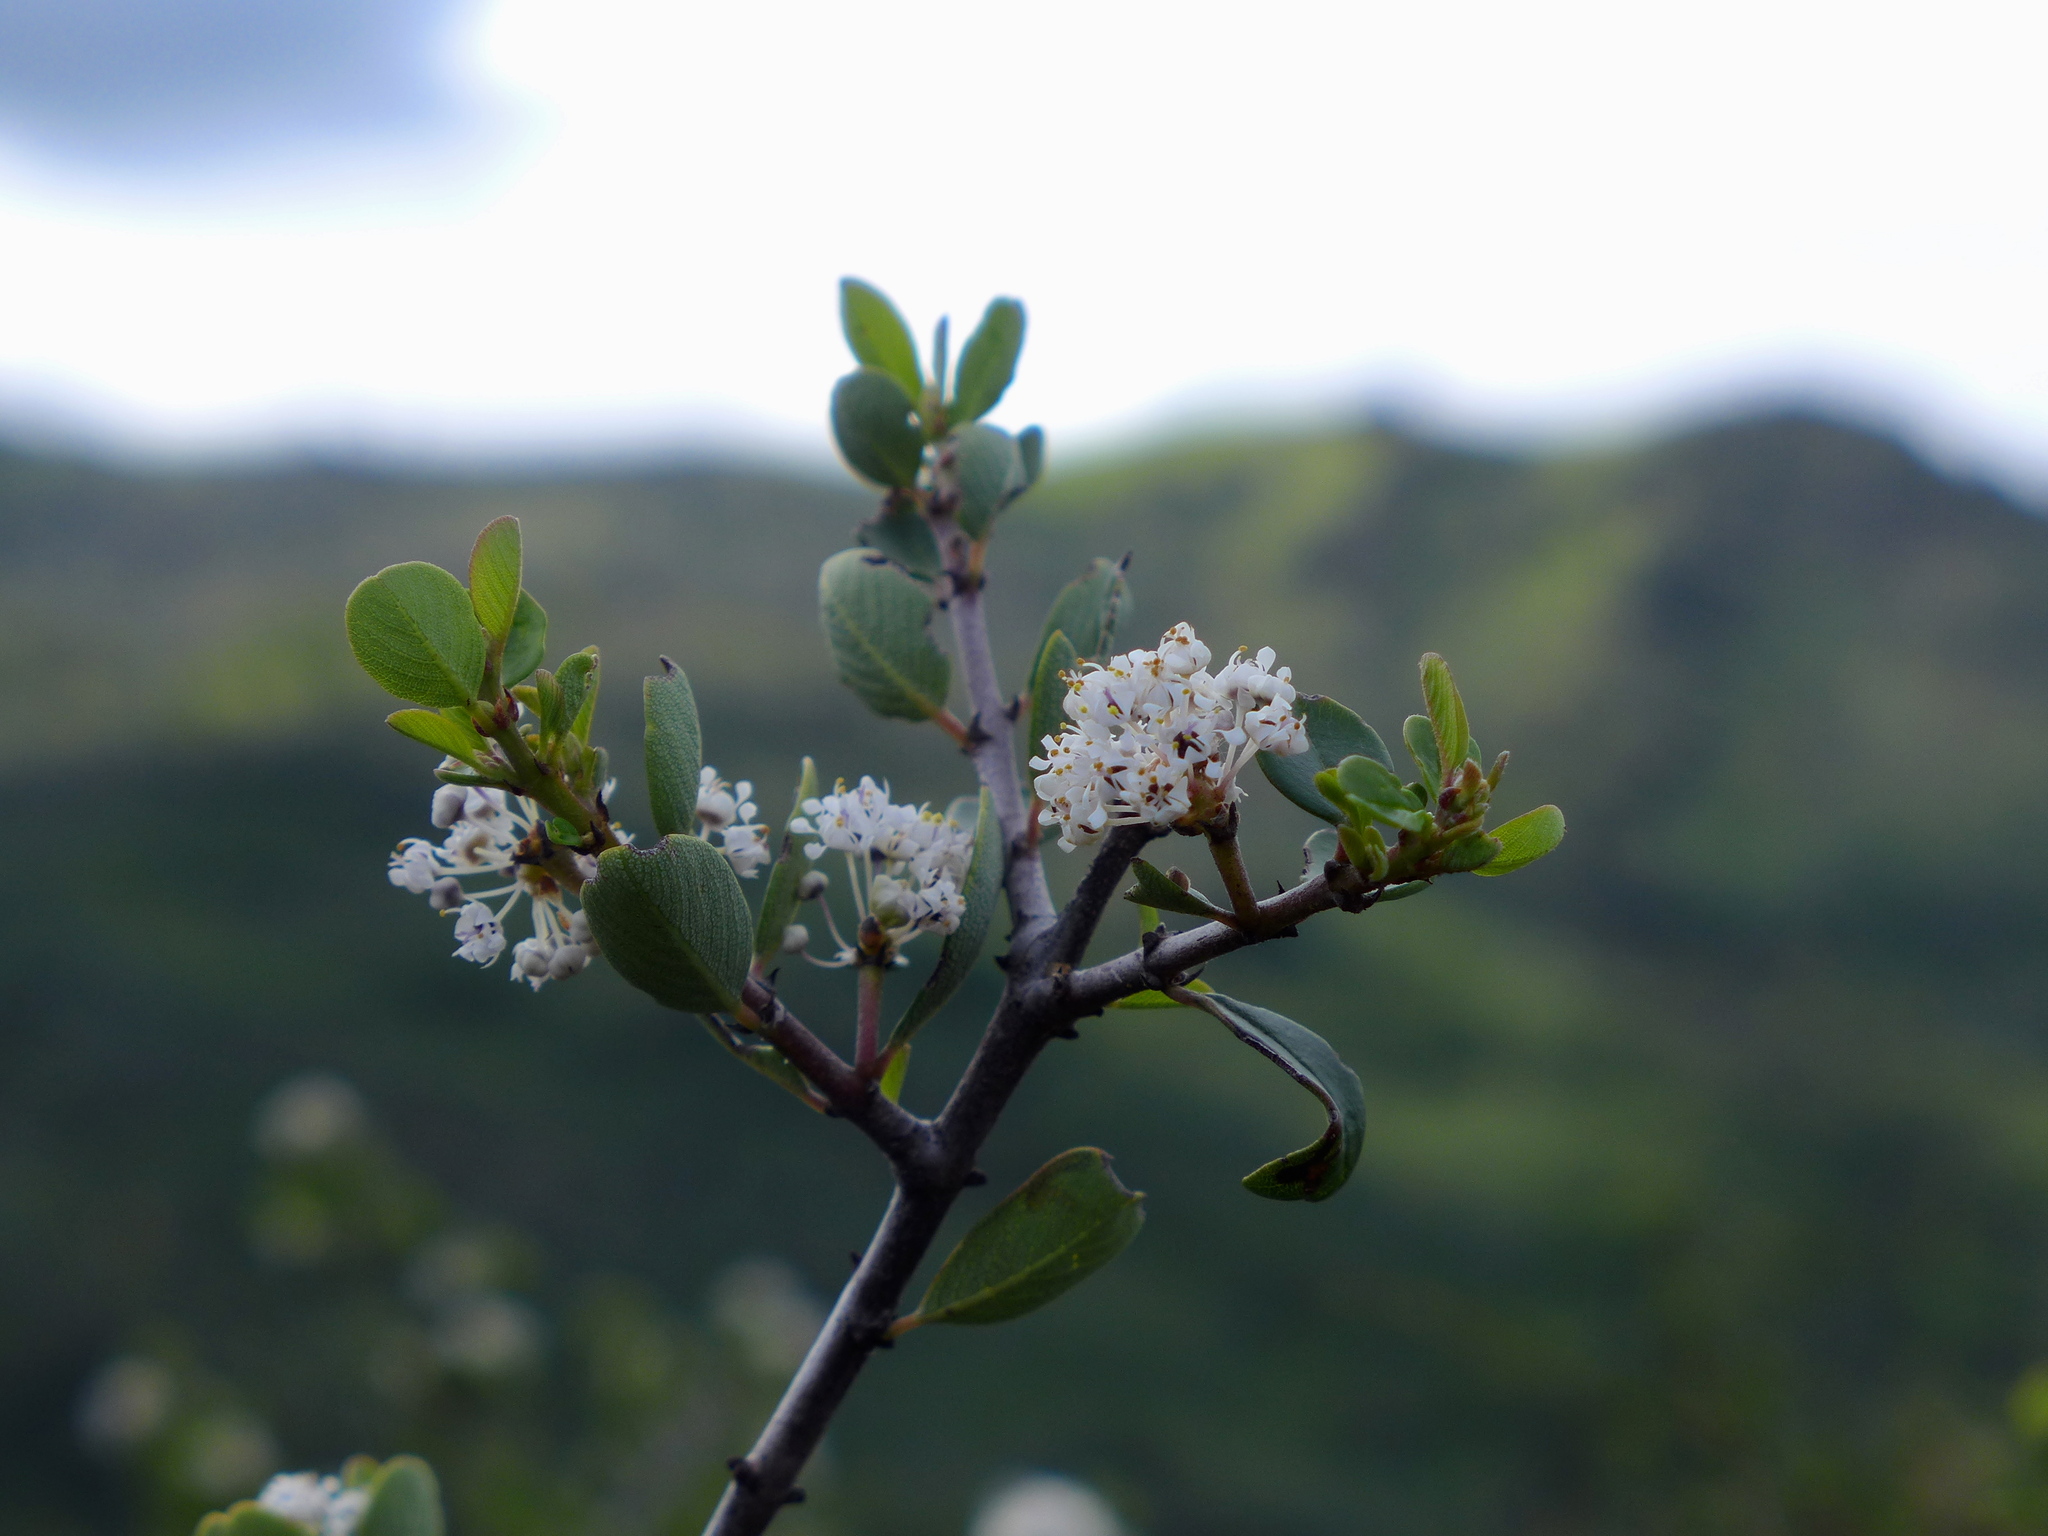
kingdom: Plantae
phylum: Tracheophyta
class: Magnoliopsida
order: Rosales
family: Rhamnaceae
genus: Ceanothus
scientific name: Ceanothus cuneatus
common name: Cuneate ceanothus
